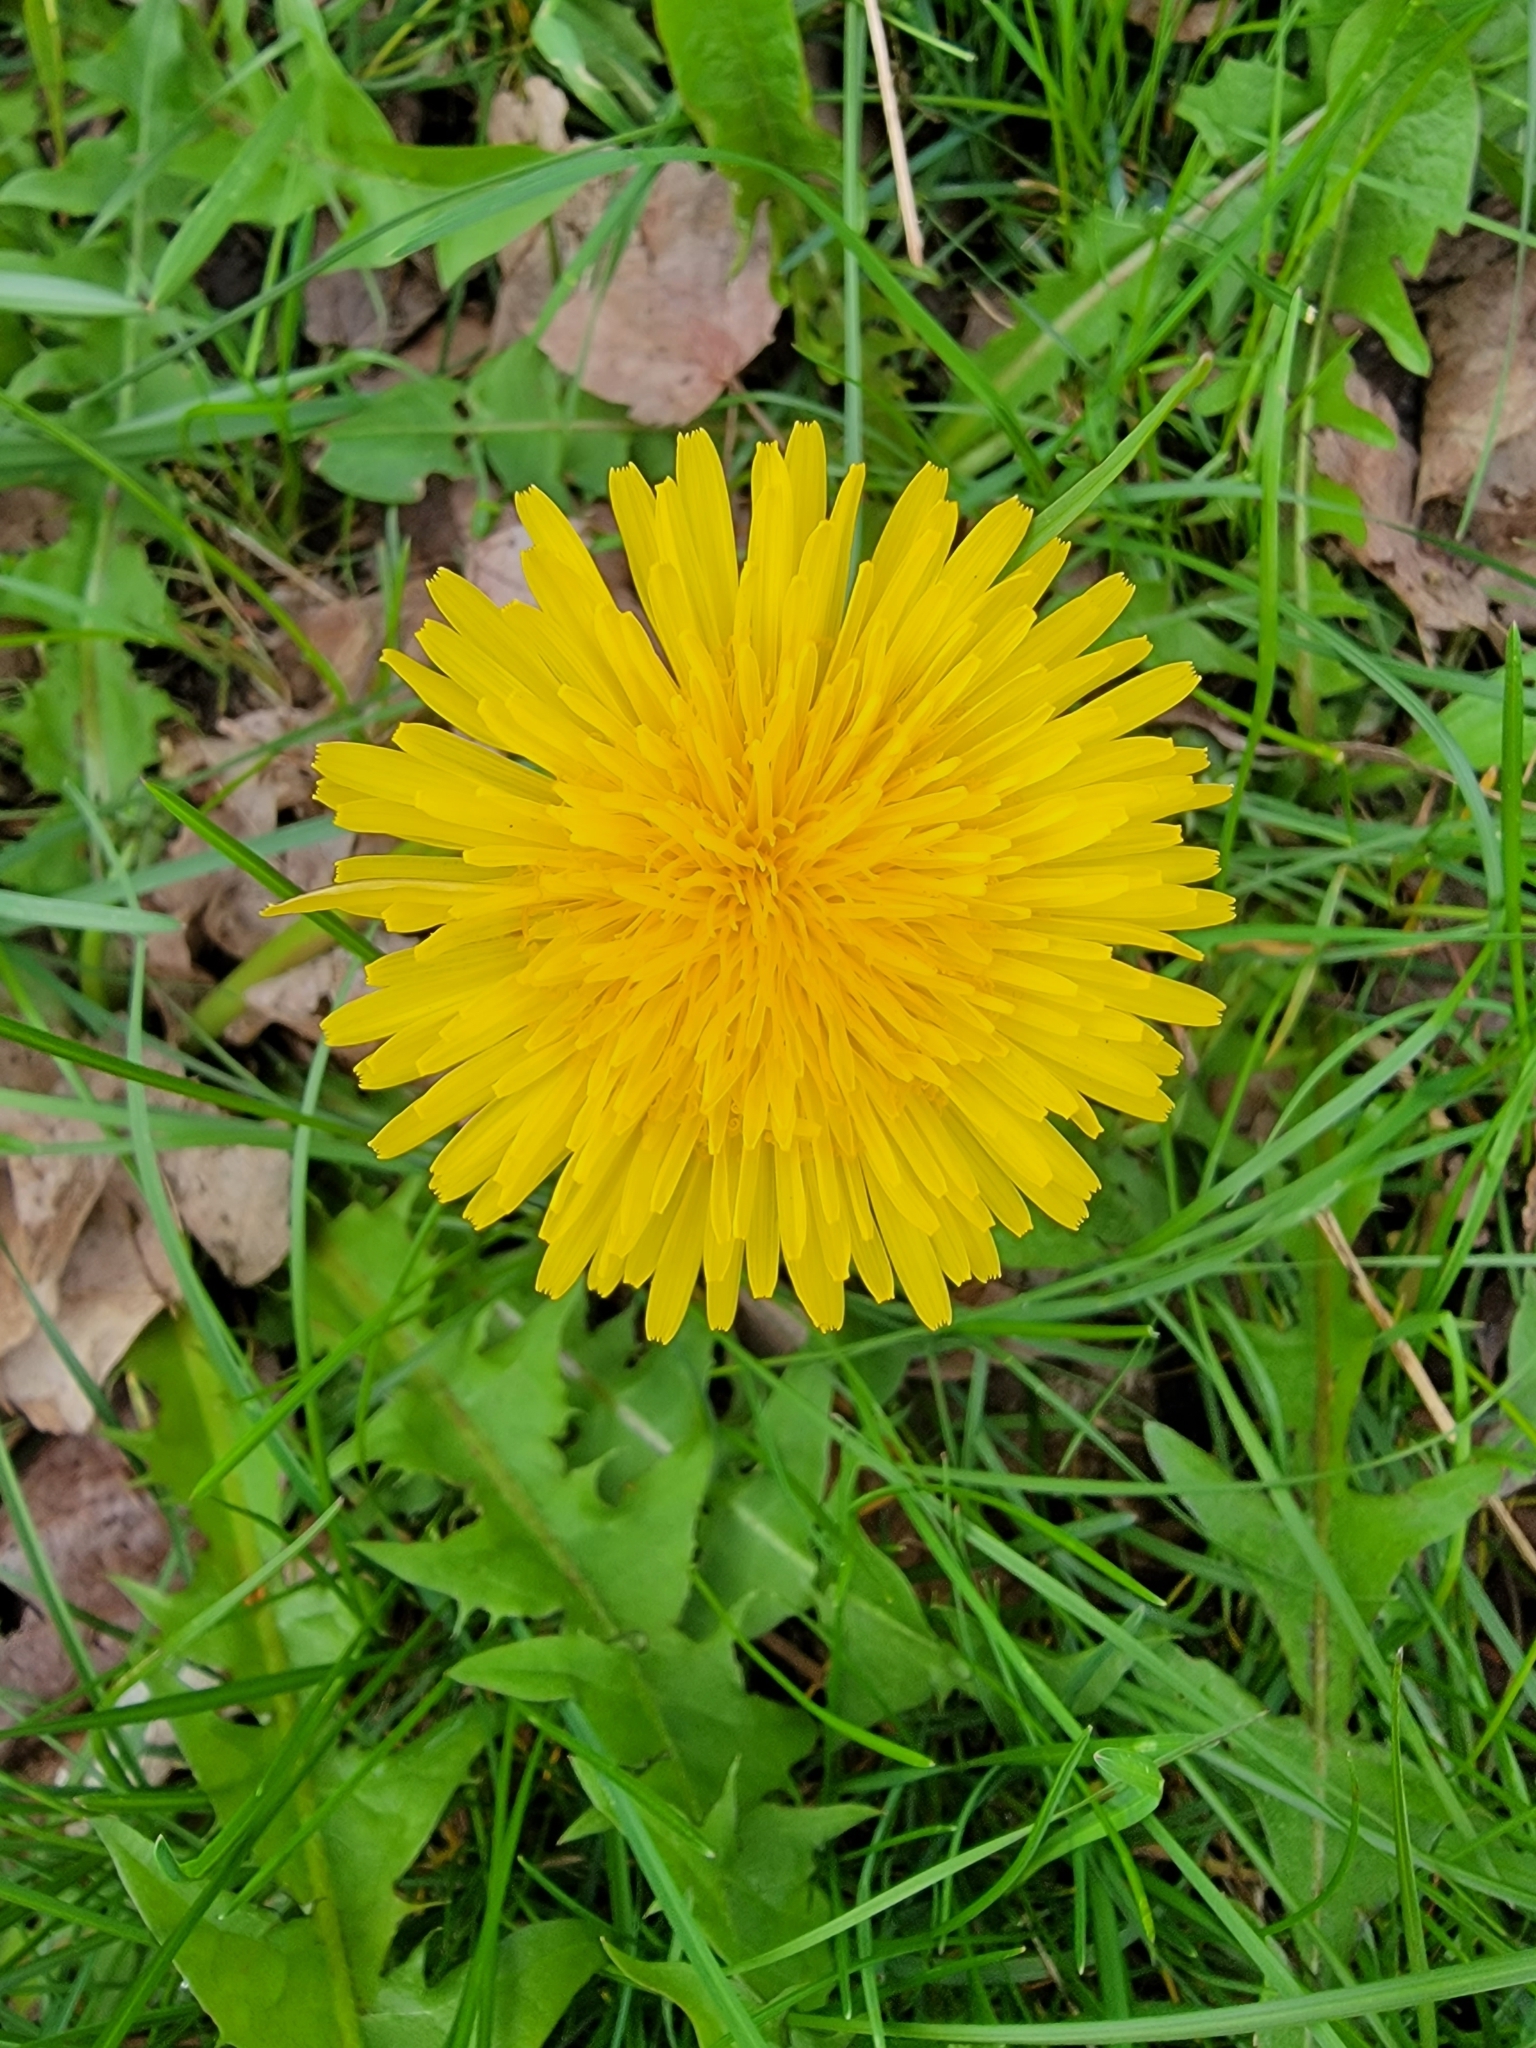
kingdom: Plantae
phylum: Tracheophyta
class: Magnoliopsida
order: Asterales
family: Asteraceae
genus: Taraxacum
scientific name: Taraxacum officinale
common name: Common dandelion
